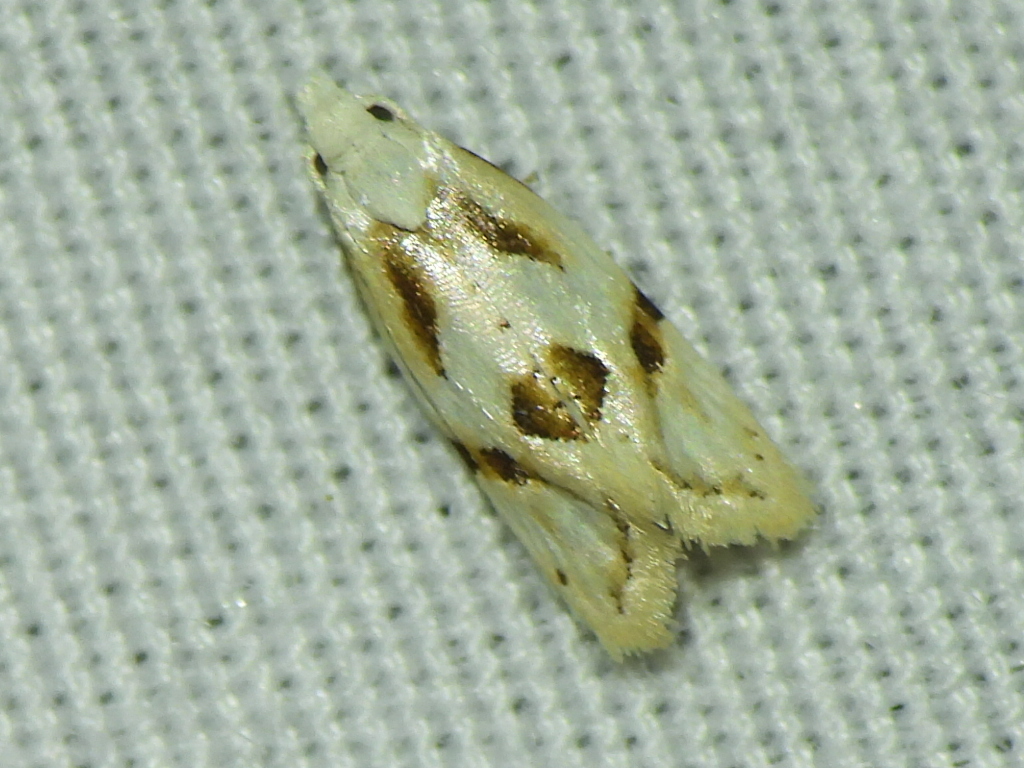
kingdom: Animalia
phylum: Arthropoda
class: Insecta
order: Lepidoptera
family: Tortricidae
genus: Aethes
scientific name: Aethes seriatana
